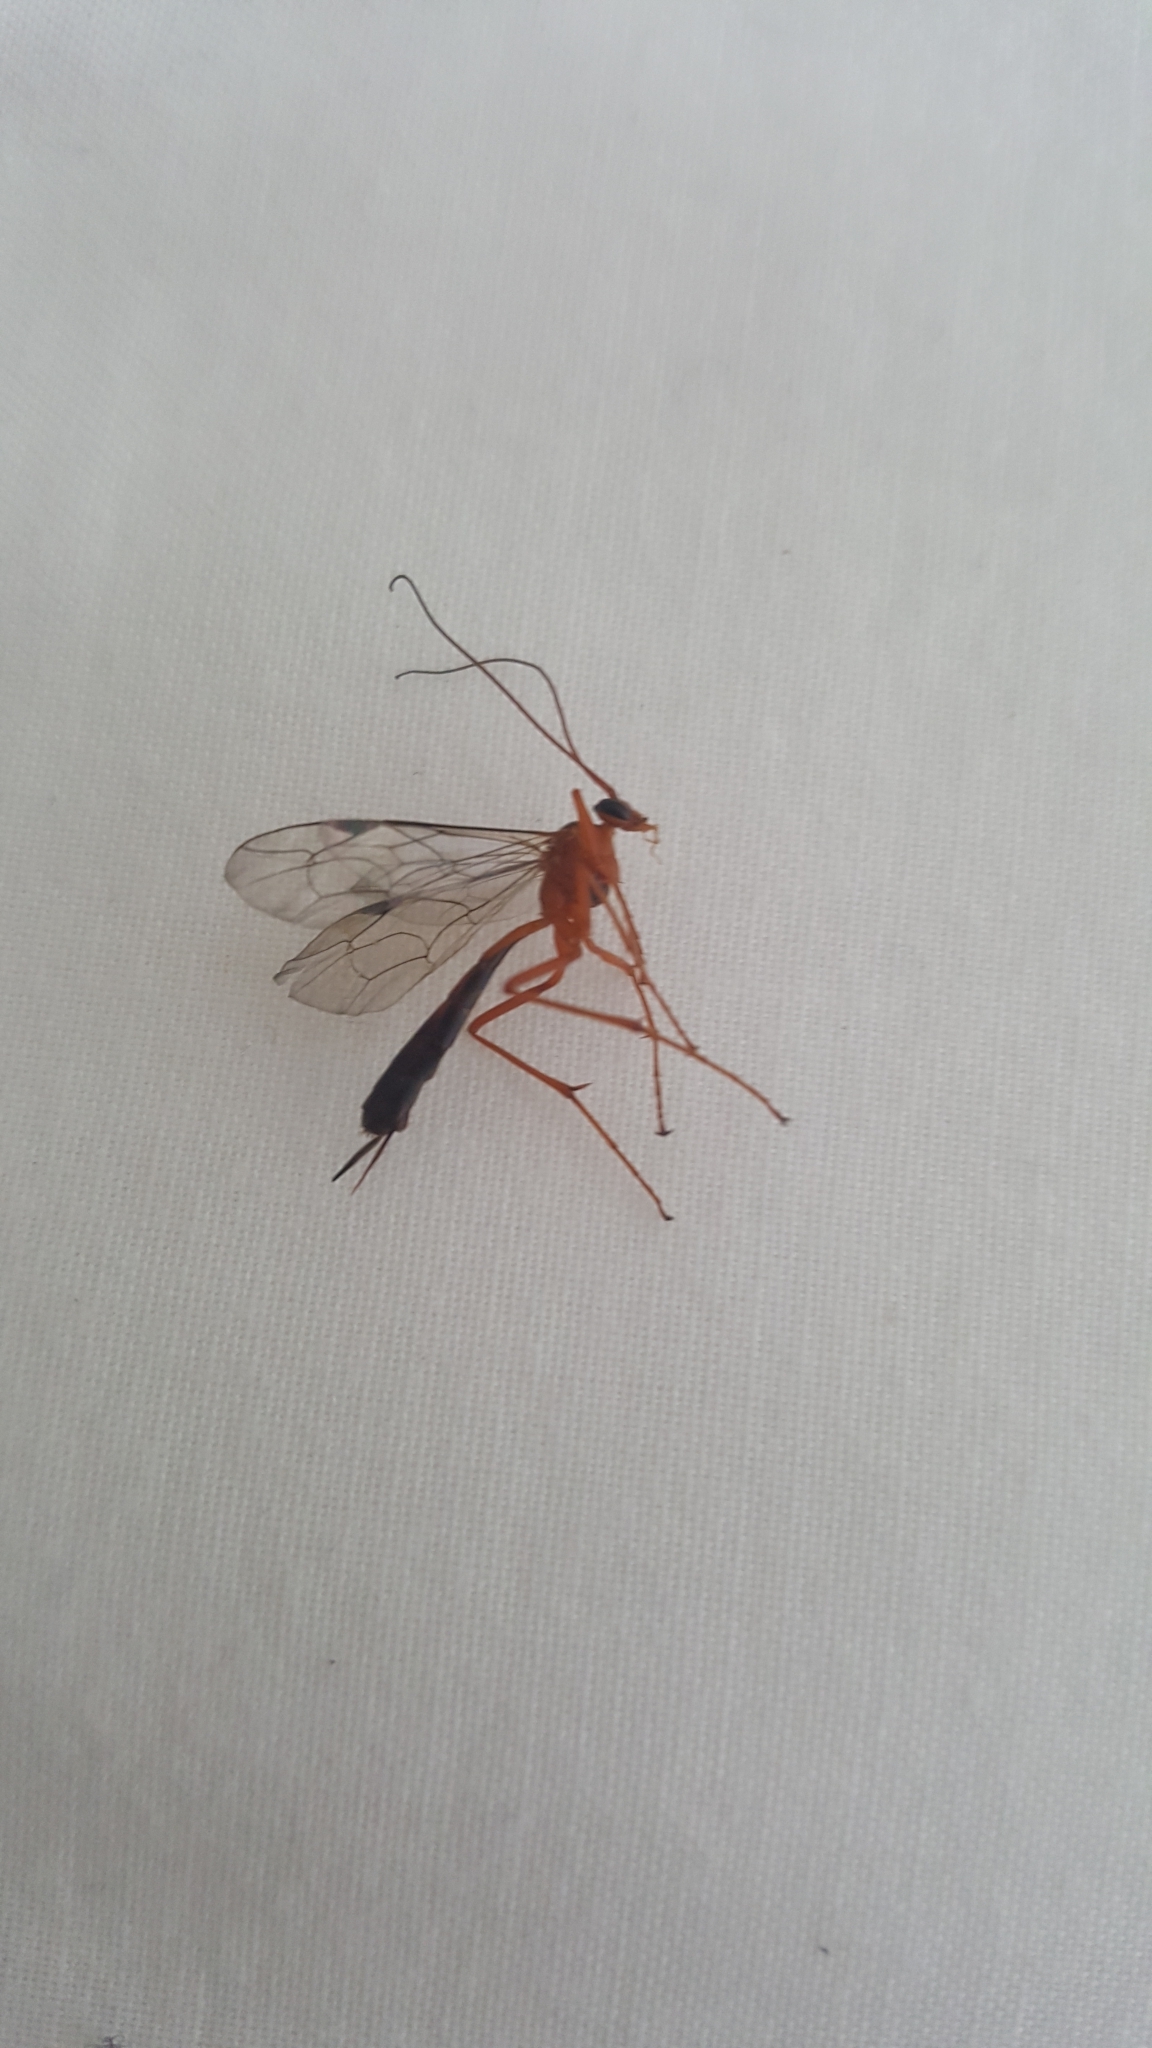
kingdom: Animalia
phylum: Arthropoda
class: Insecta
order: Hymenoptera
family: Ichneumonidae
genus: Netelia
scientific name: Netelia ephippiata
